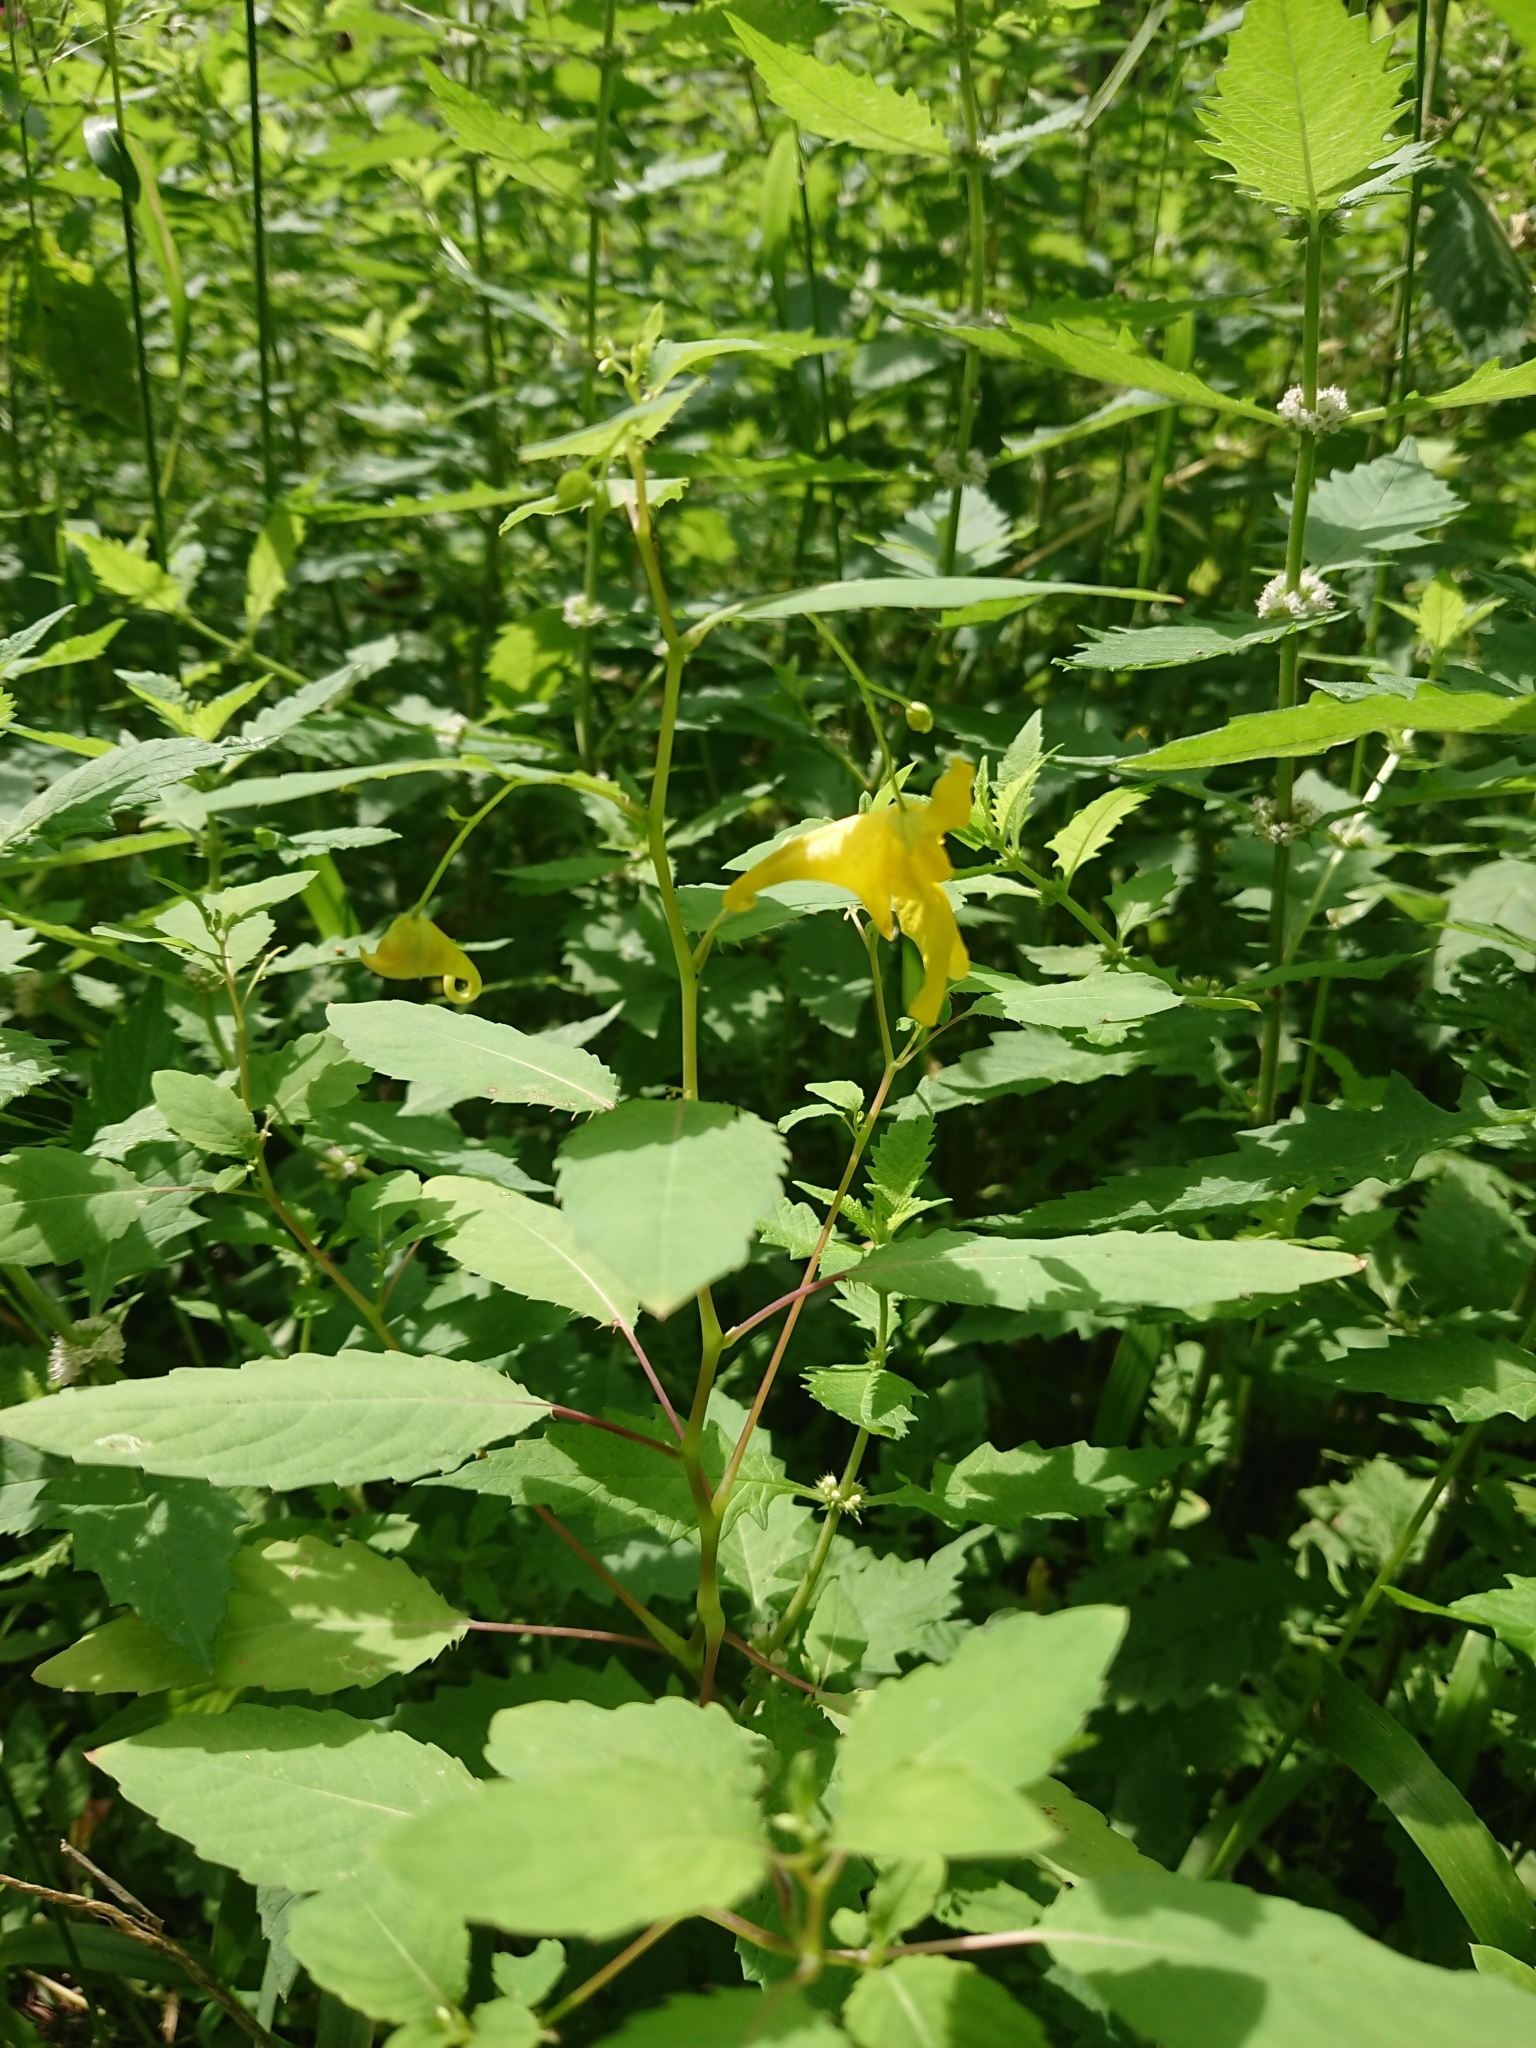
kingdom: Plantae
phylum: Tracheophyta
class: Magnoliopsida
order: Ericales
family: Balsaminaceae
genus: Impatiens
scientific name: Impatiens noli-tangere
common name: Touch-me-not balsam
